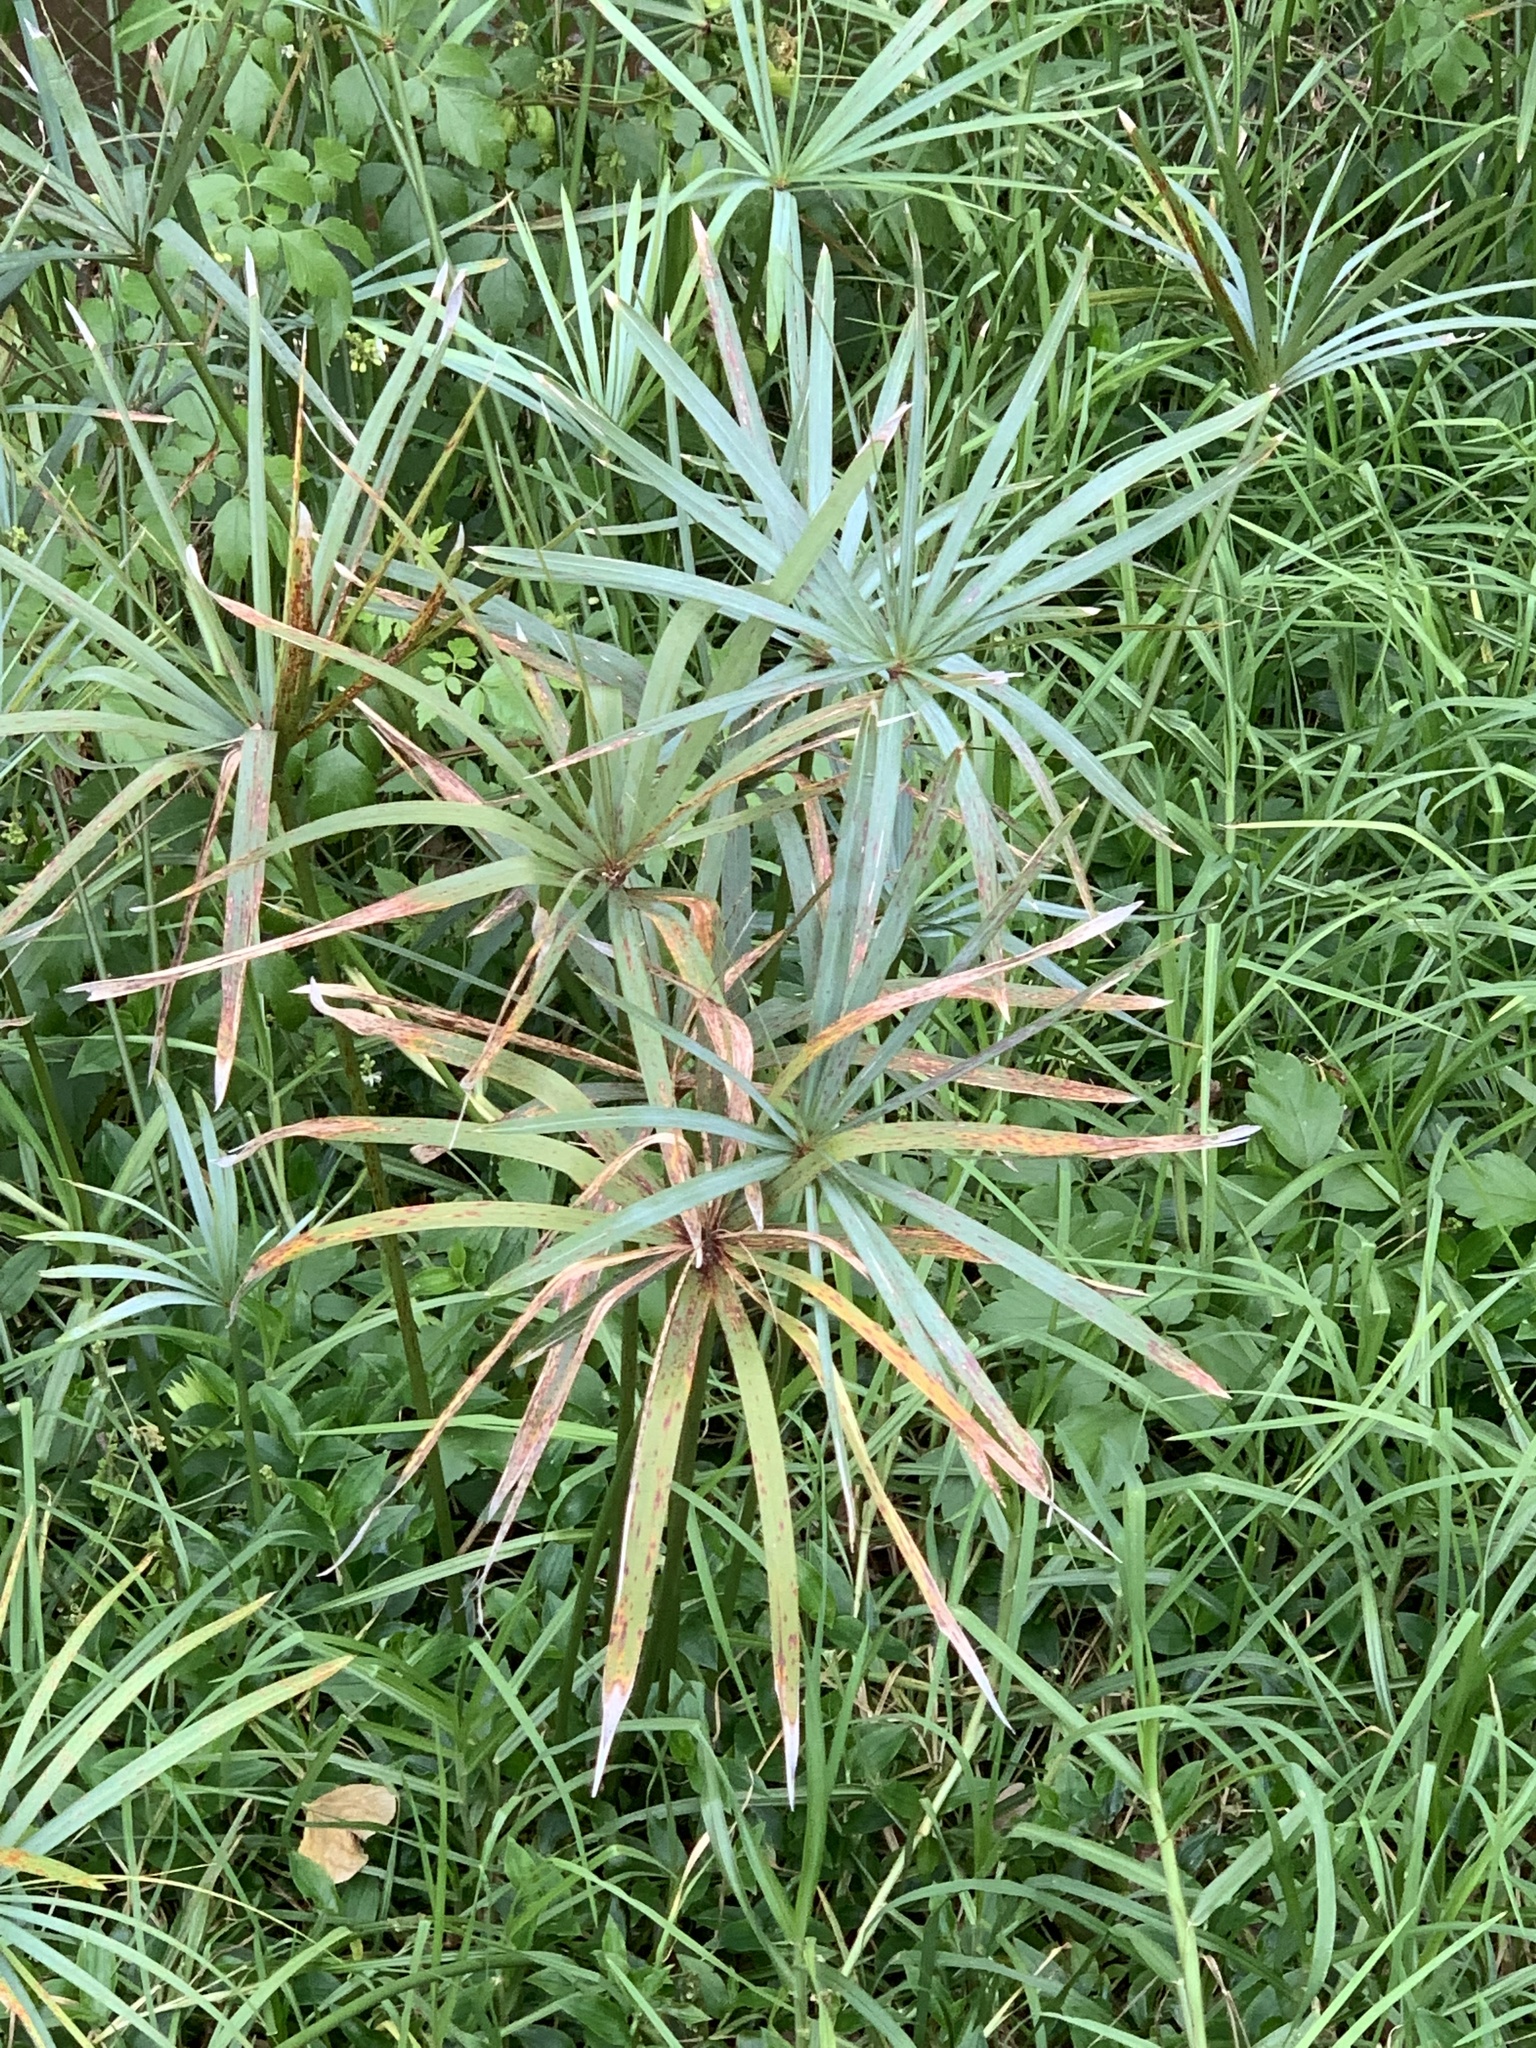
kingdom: Plantae
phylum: Tracheophyta
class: Liliopsida
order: Poales
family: Cyperaceae
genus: Cyperus
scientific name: Cyperus textilis
